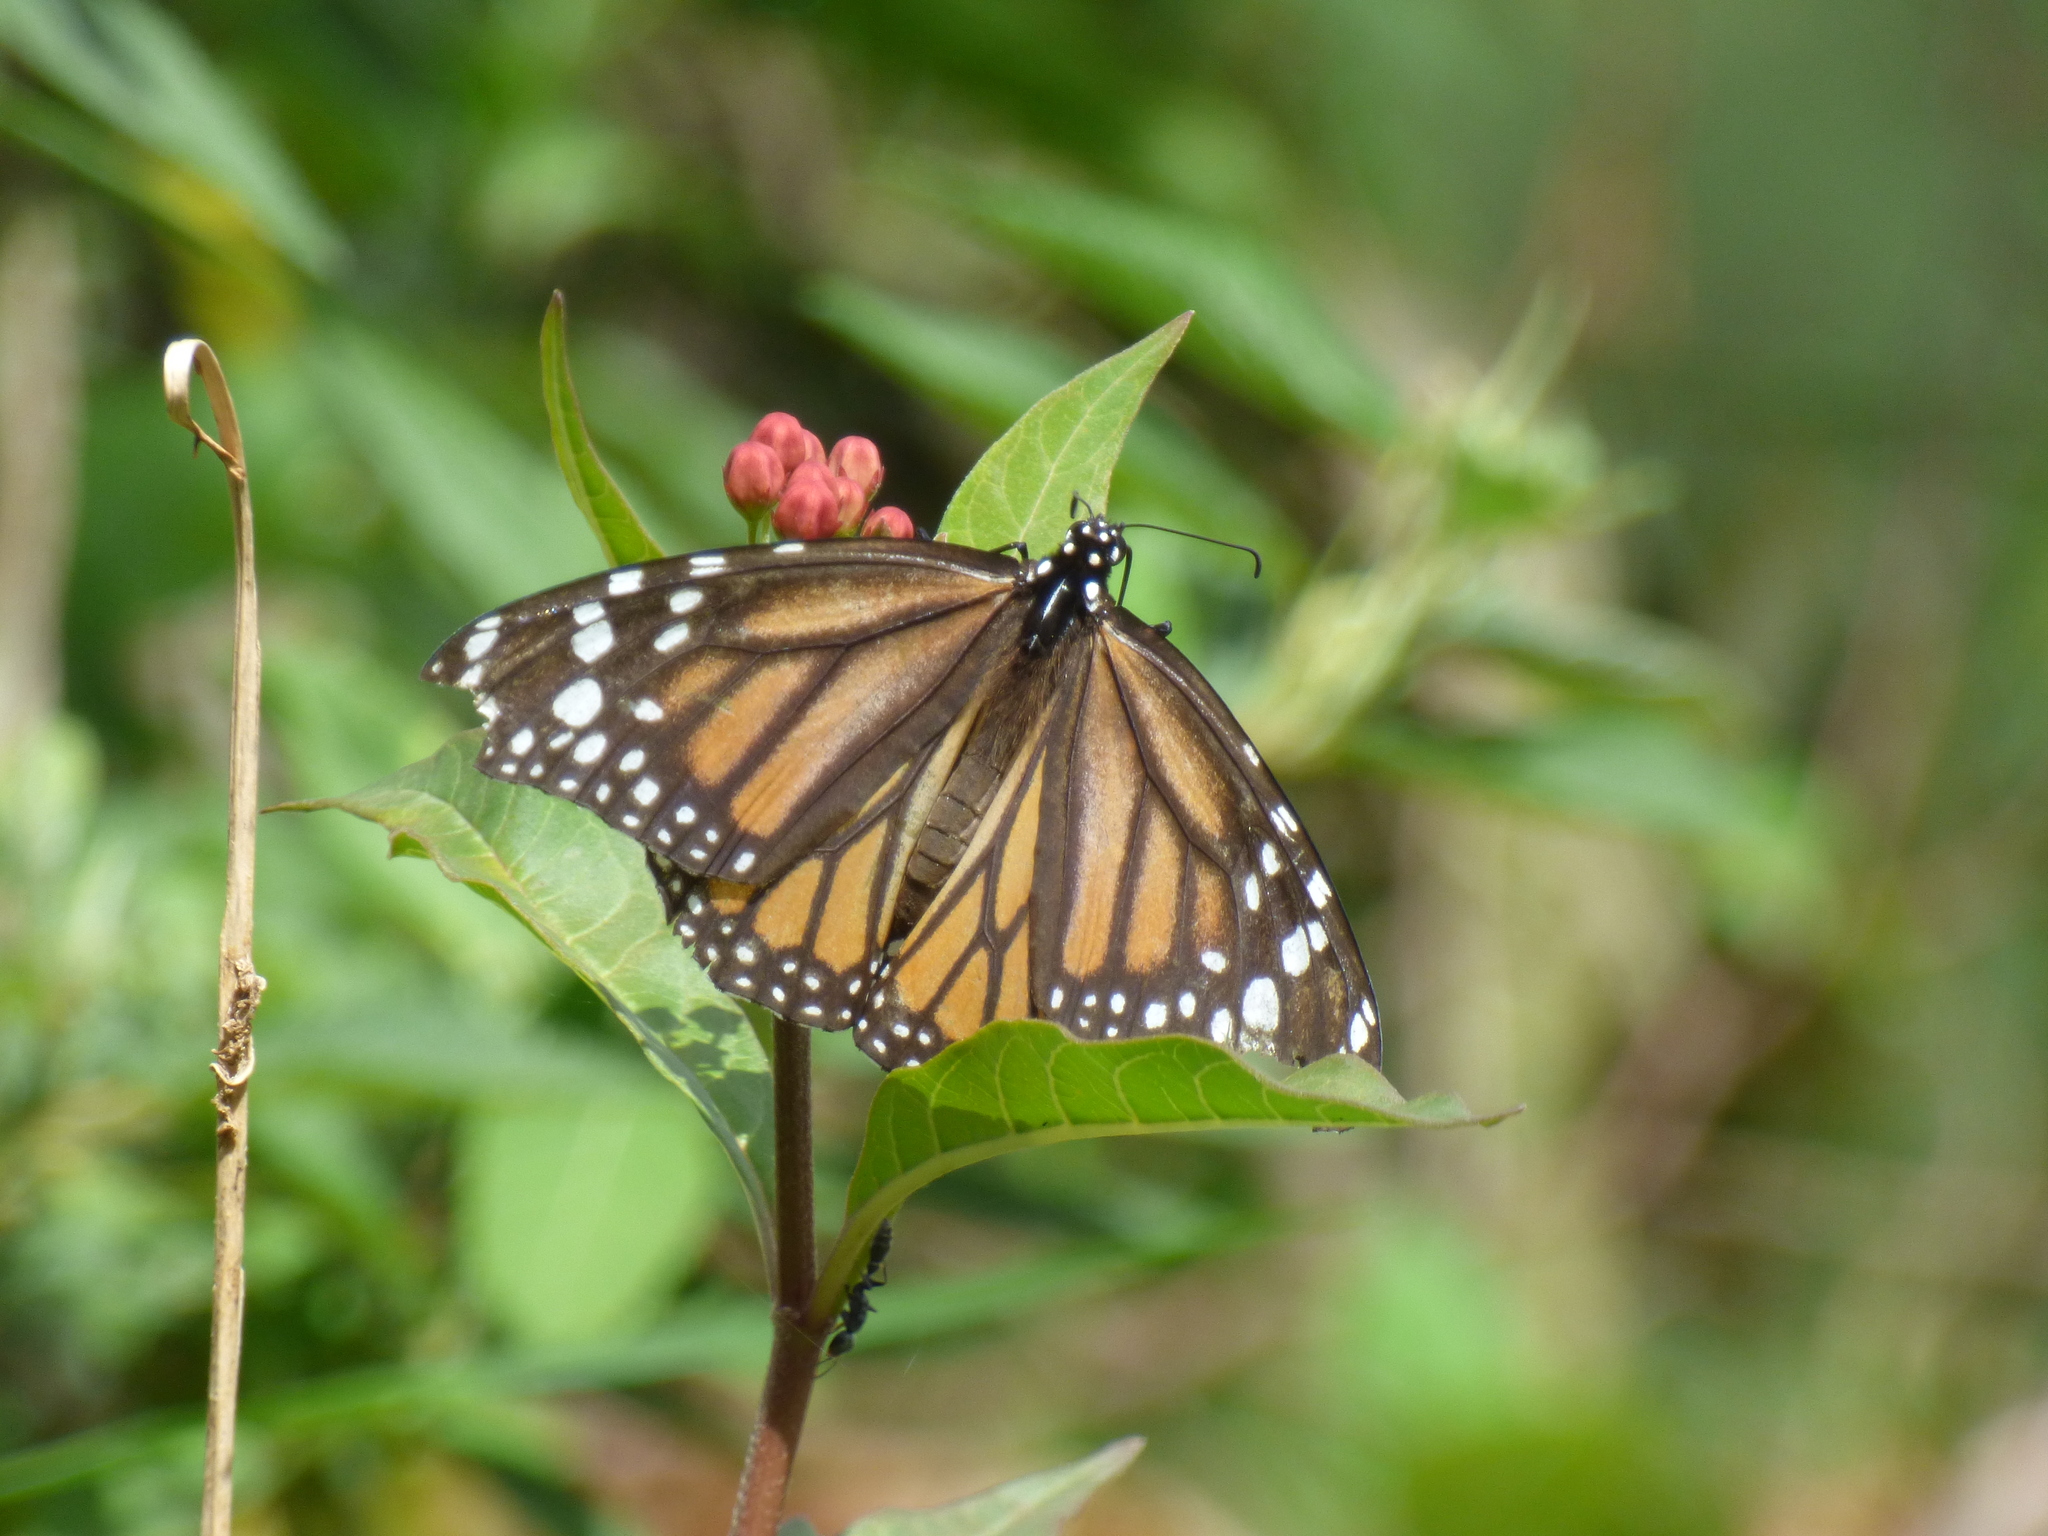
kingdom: Animalia
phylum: Arthropoda
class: Insecta
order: Lepidoptera
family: Nymphalidae
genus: Danaus
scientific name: Danaus plexippus
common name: Monarch
